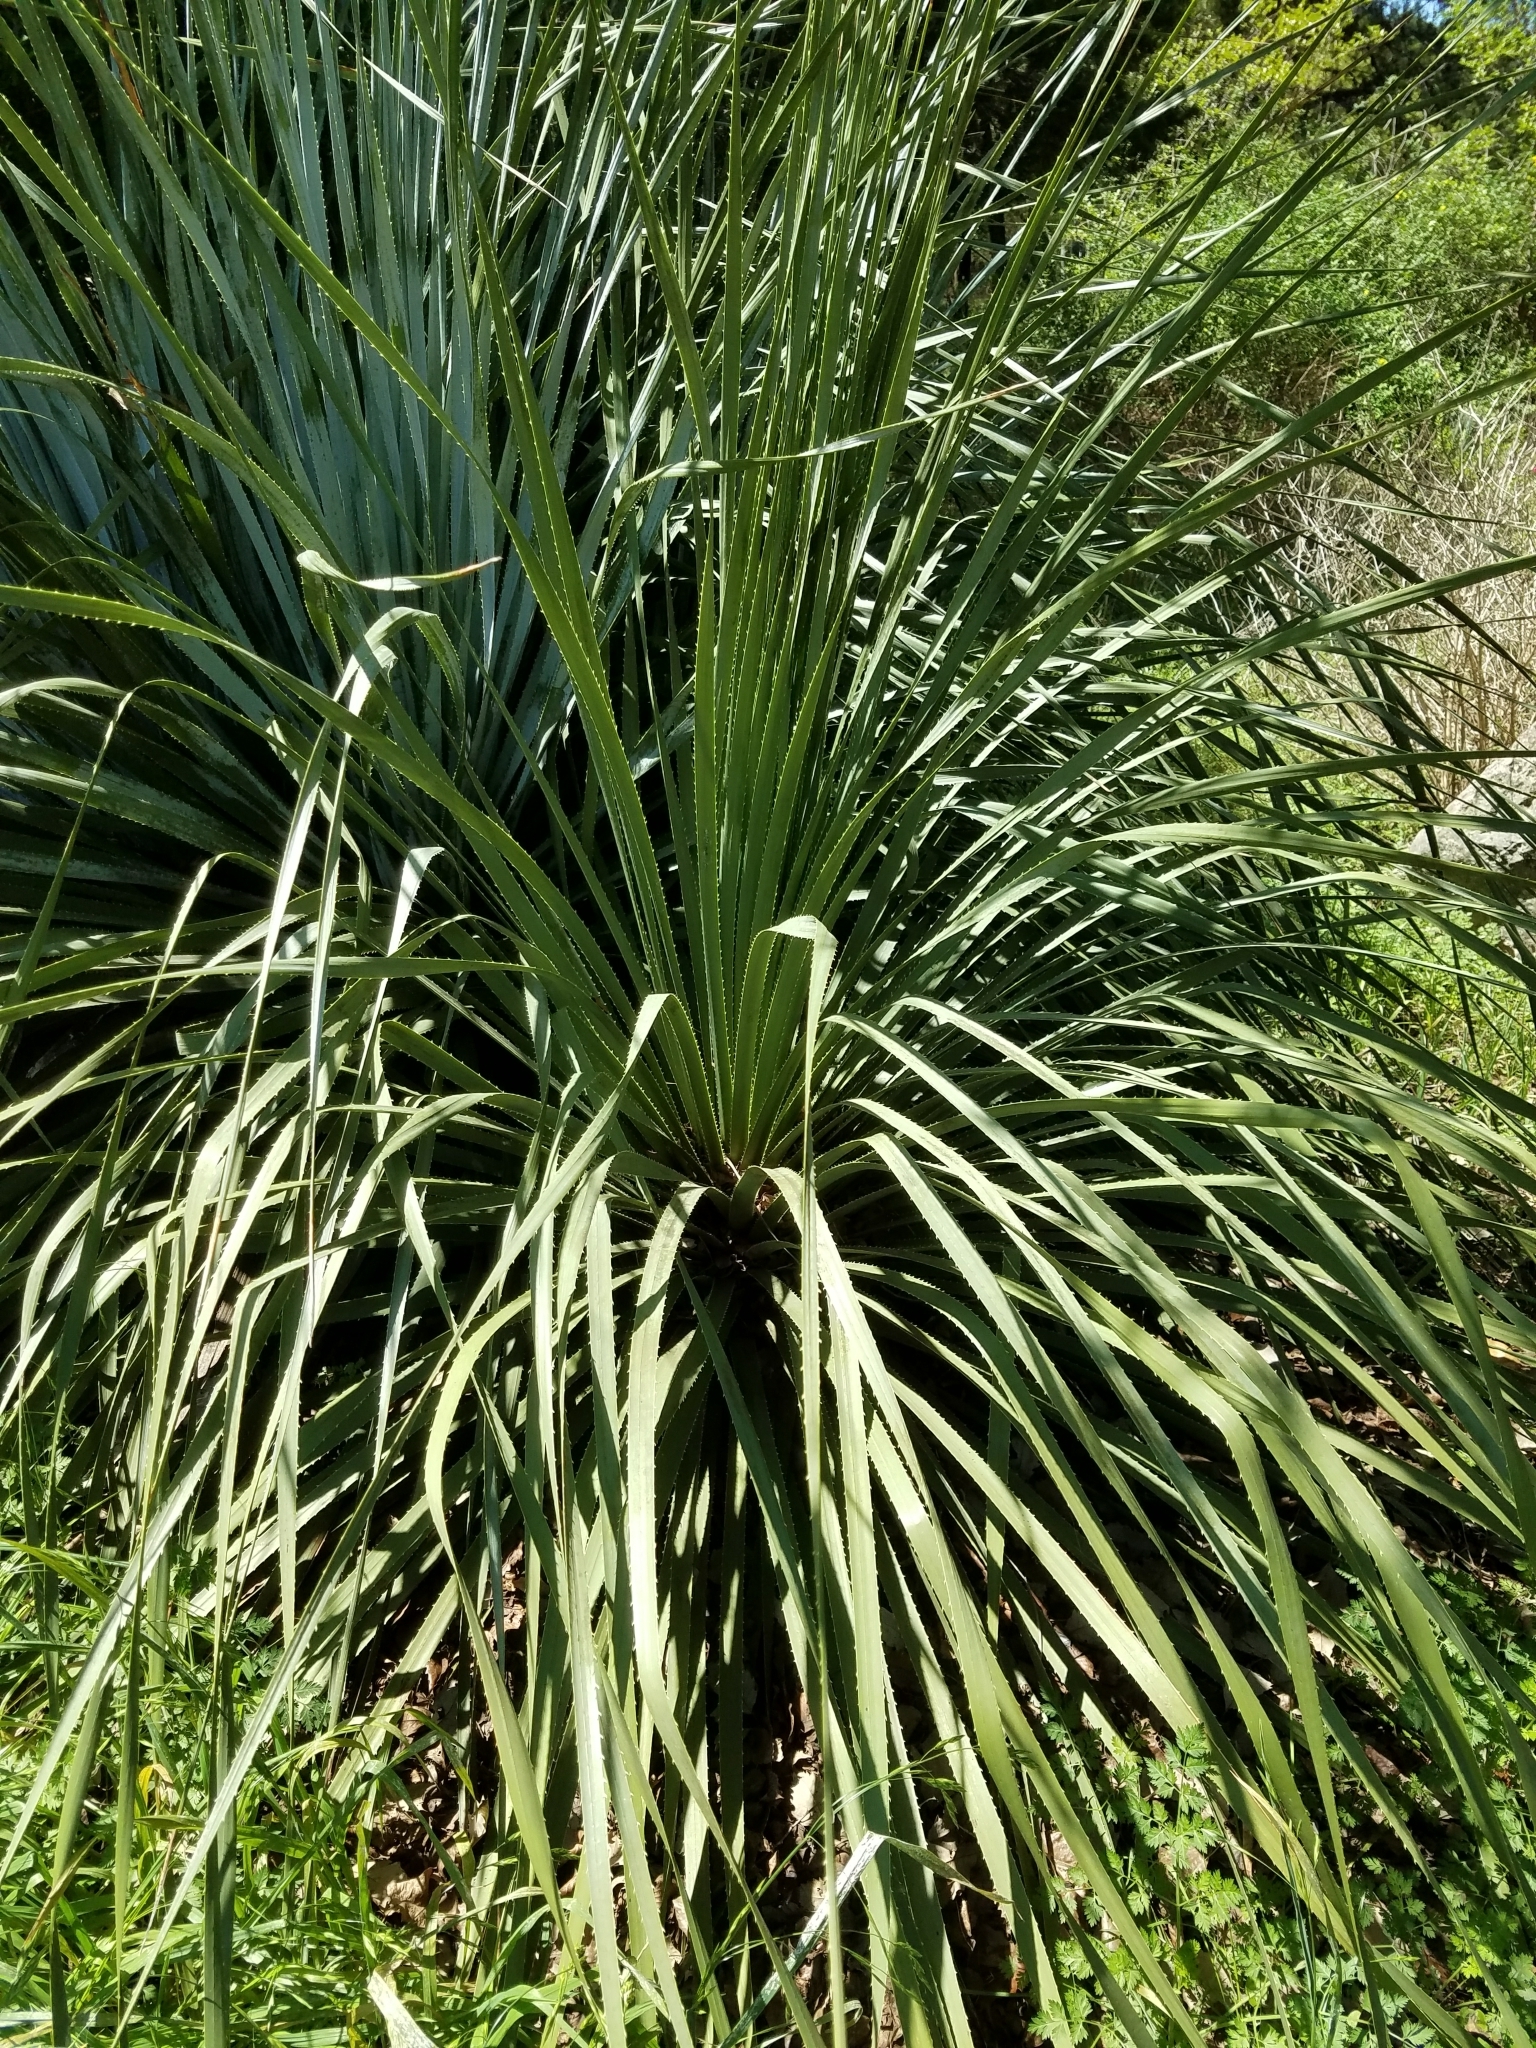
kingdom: Plantae
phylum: Tracheophyta
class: Liliopsida
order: Asparagales
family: Asparagaceae
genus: Dasylirion
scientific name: Dasylirion texanum
